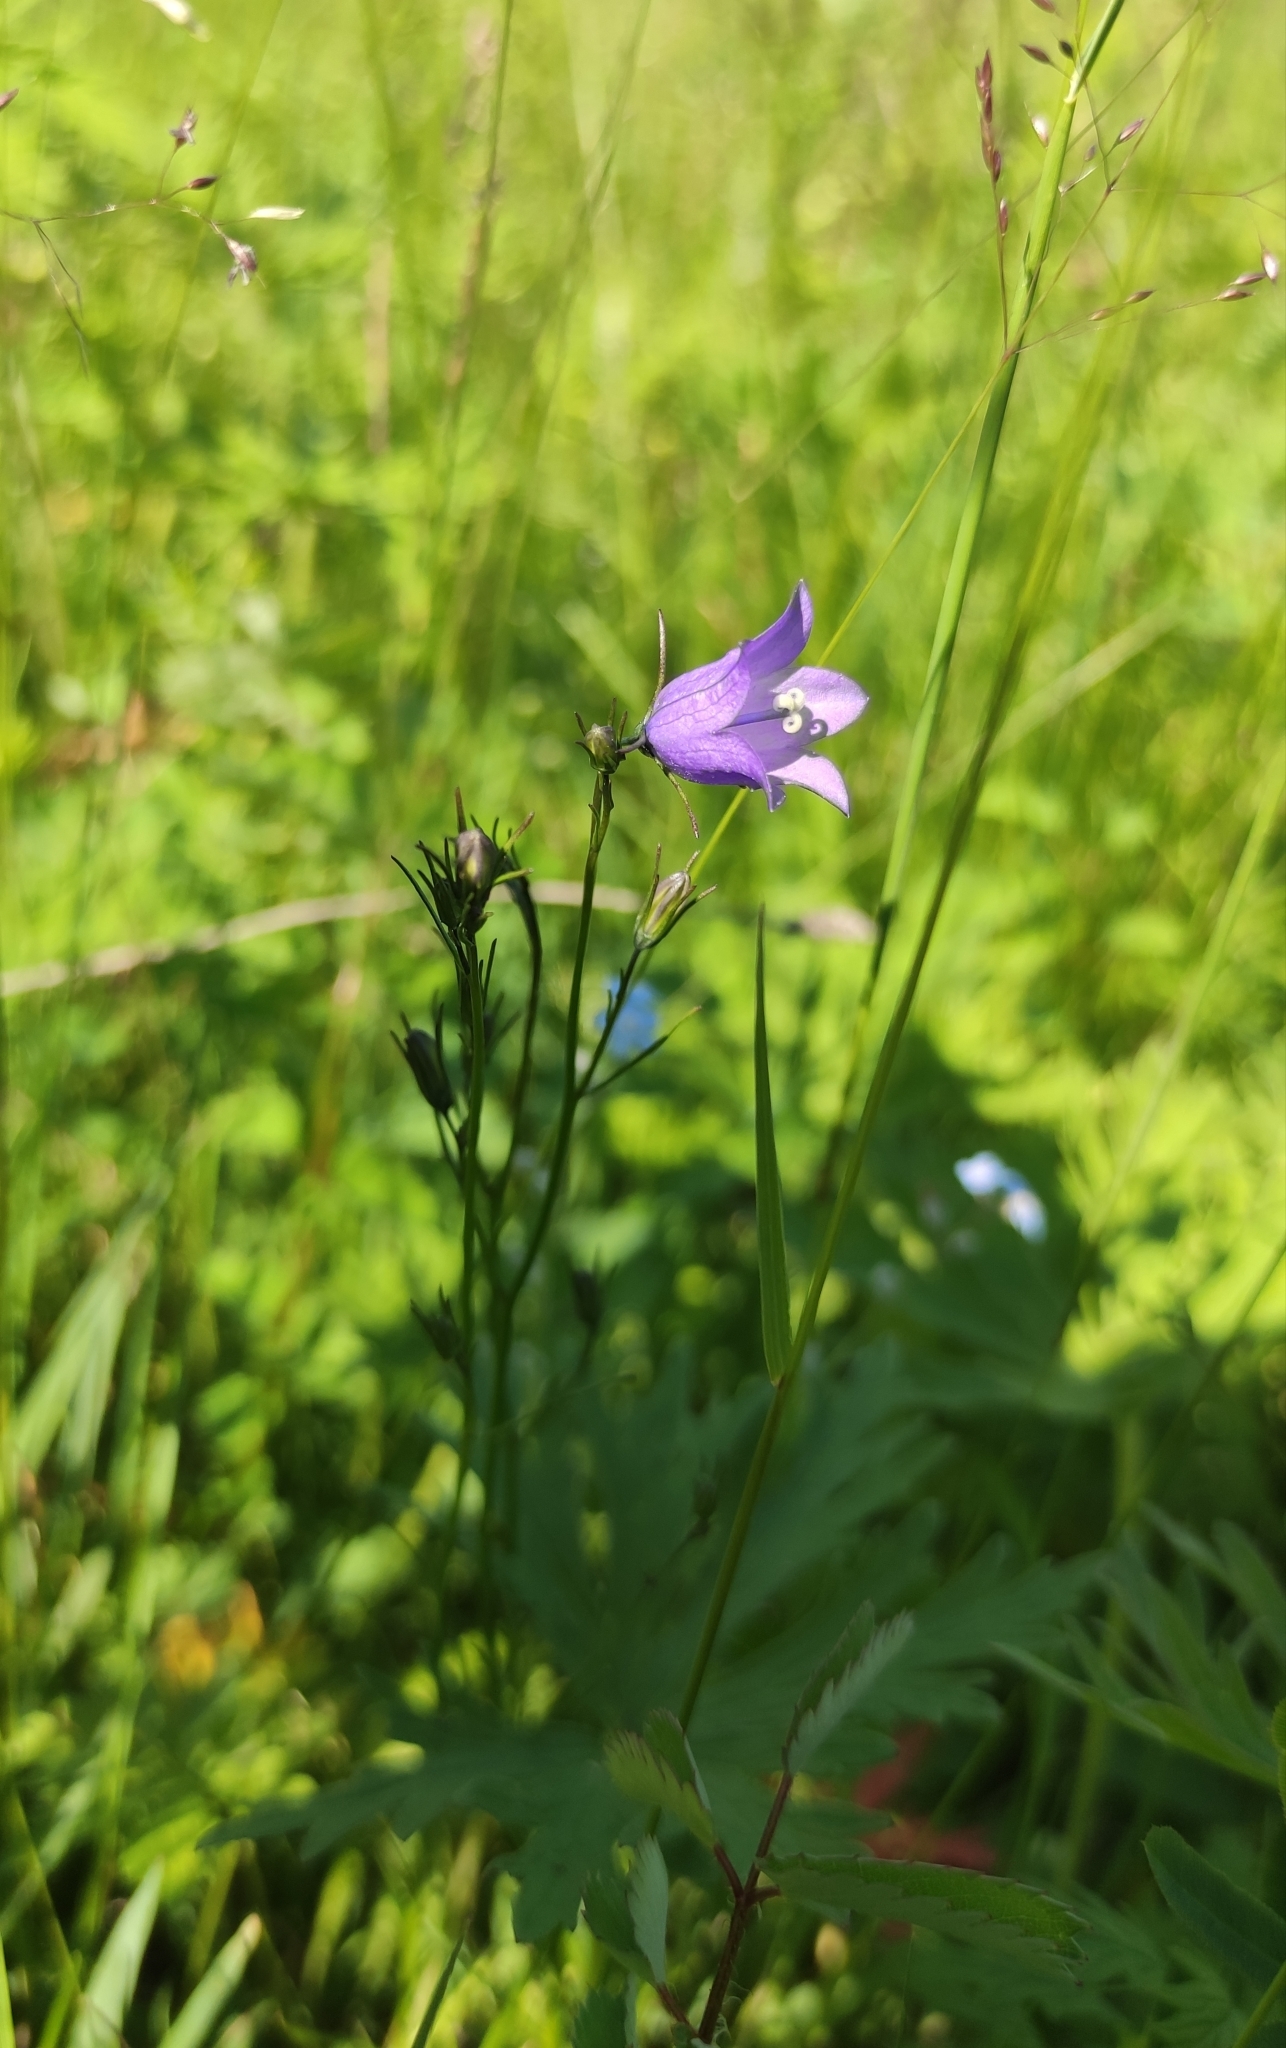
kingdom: Plantae
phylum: Tracheophyta
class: Magnoliopsida
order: Asterales
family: Campanulaceae
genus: Campanula
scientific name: Campanula rotundifolia
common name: Harebell
